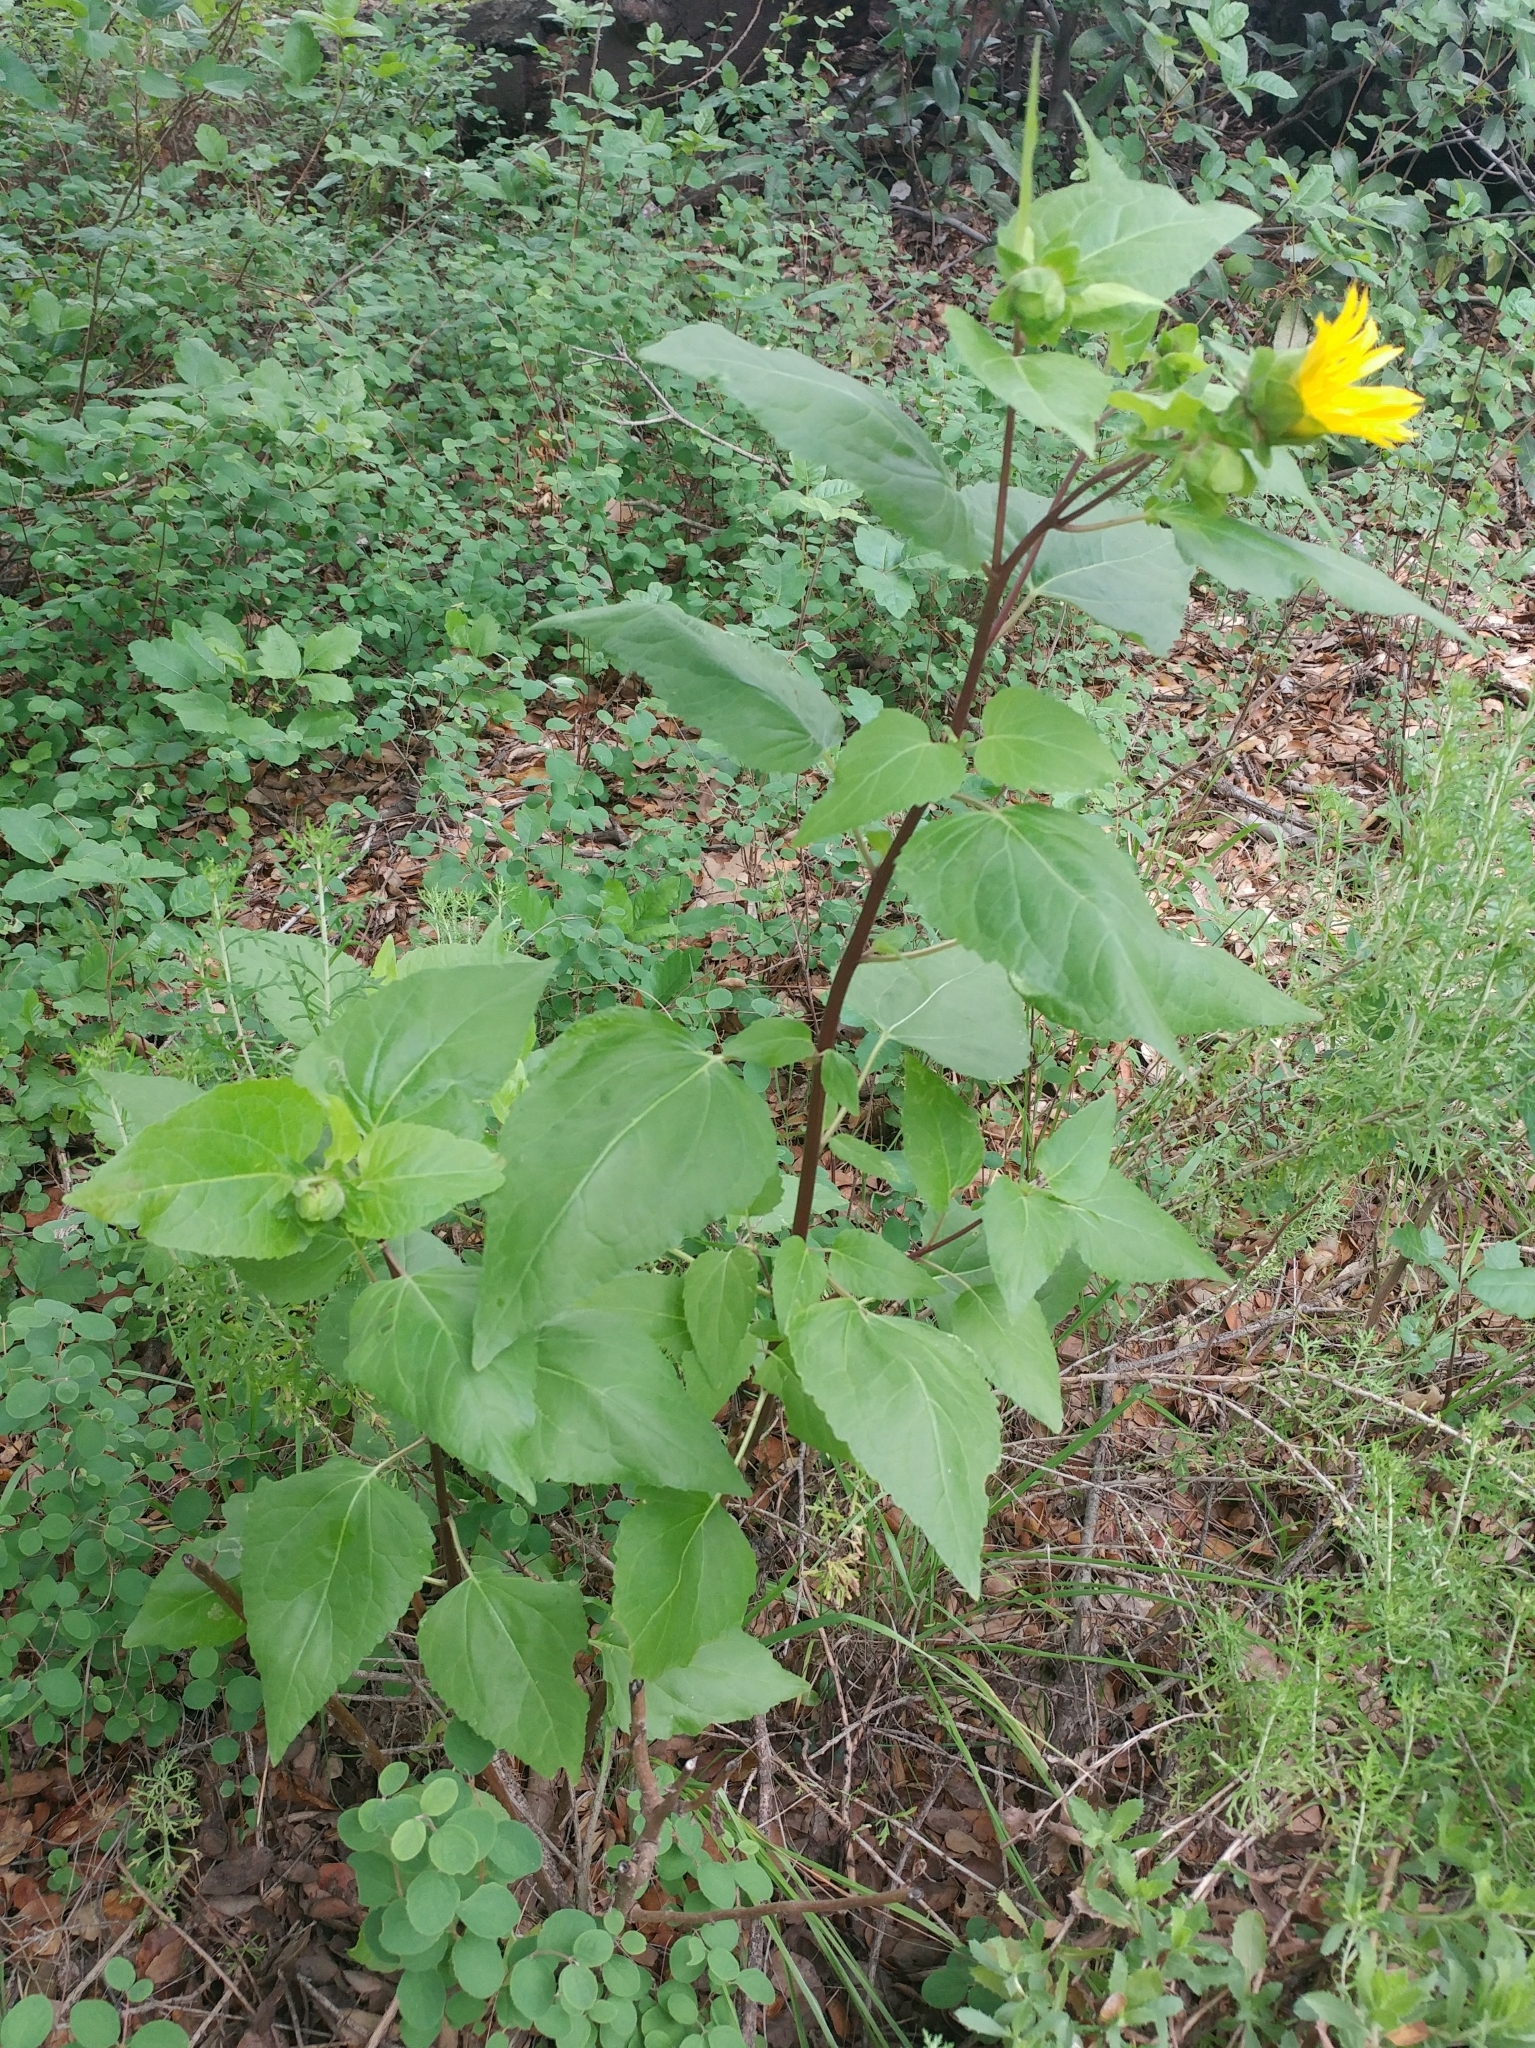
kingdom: Plantae
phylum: Tracheophyta
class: Magnoliopsida
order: Asterales
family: Asteraceae
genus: Venegasia
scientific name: Venegasia carpesioides
